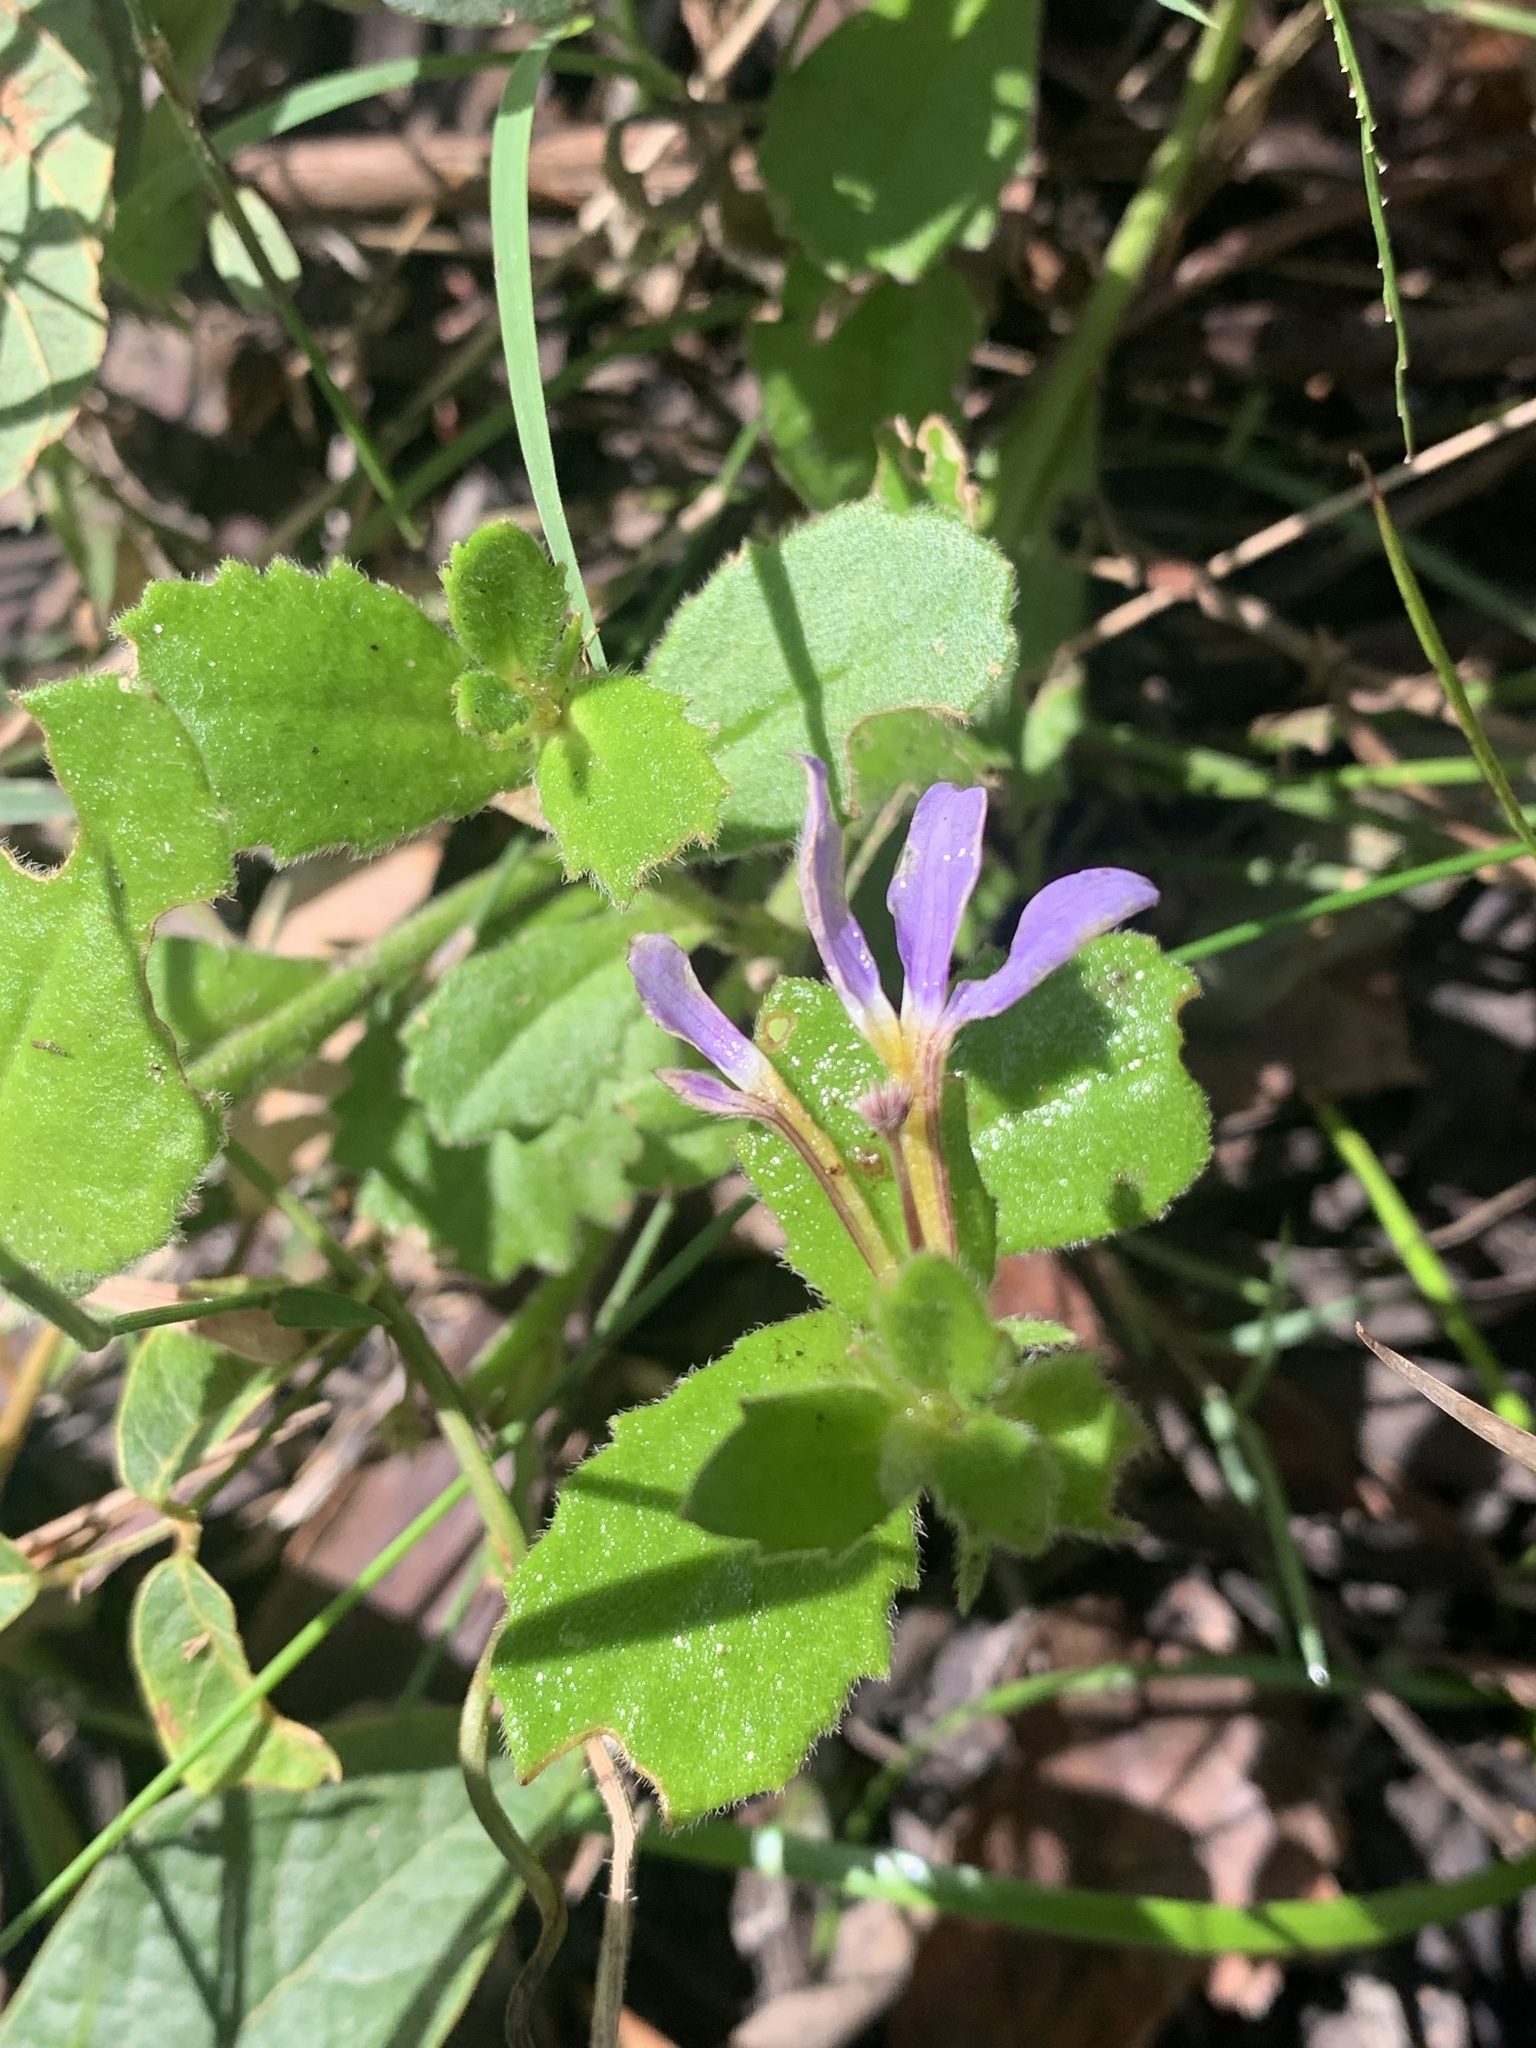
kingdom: Plantae
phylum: Tracheophyta
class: Magnoliopsida
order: Asterales
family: Goodeniaceae
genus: Scaevola
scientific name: Scaevola aemula
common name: Common fanflower
